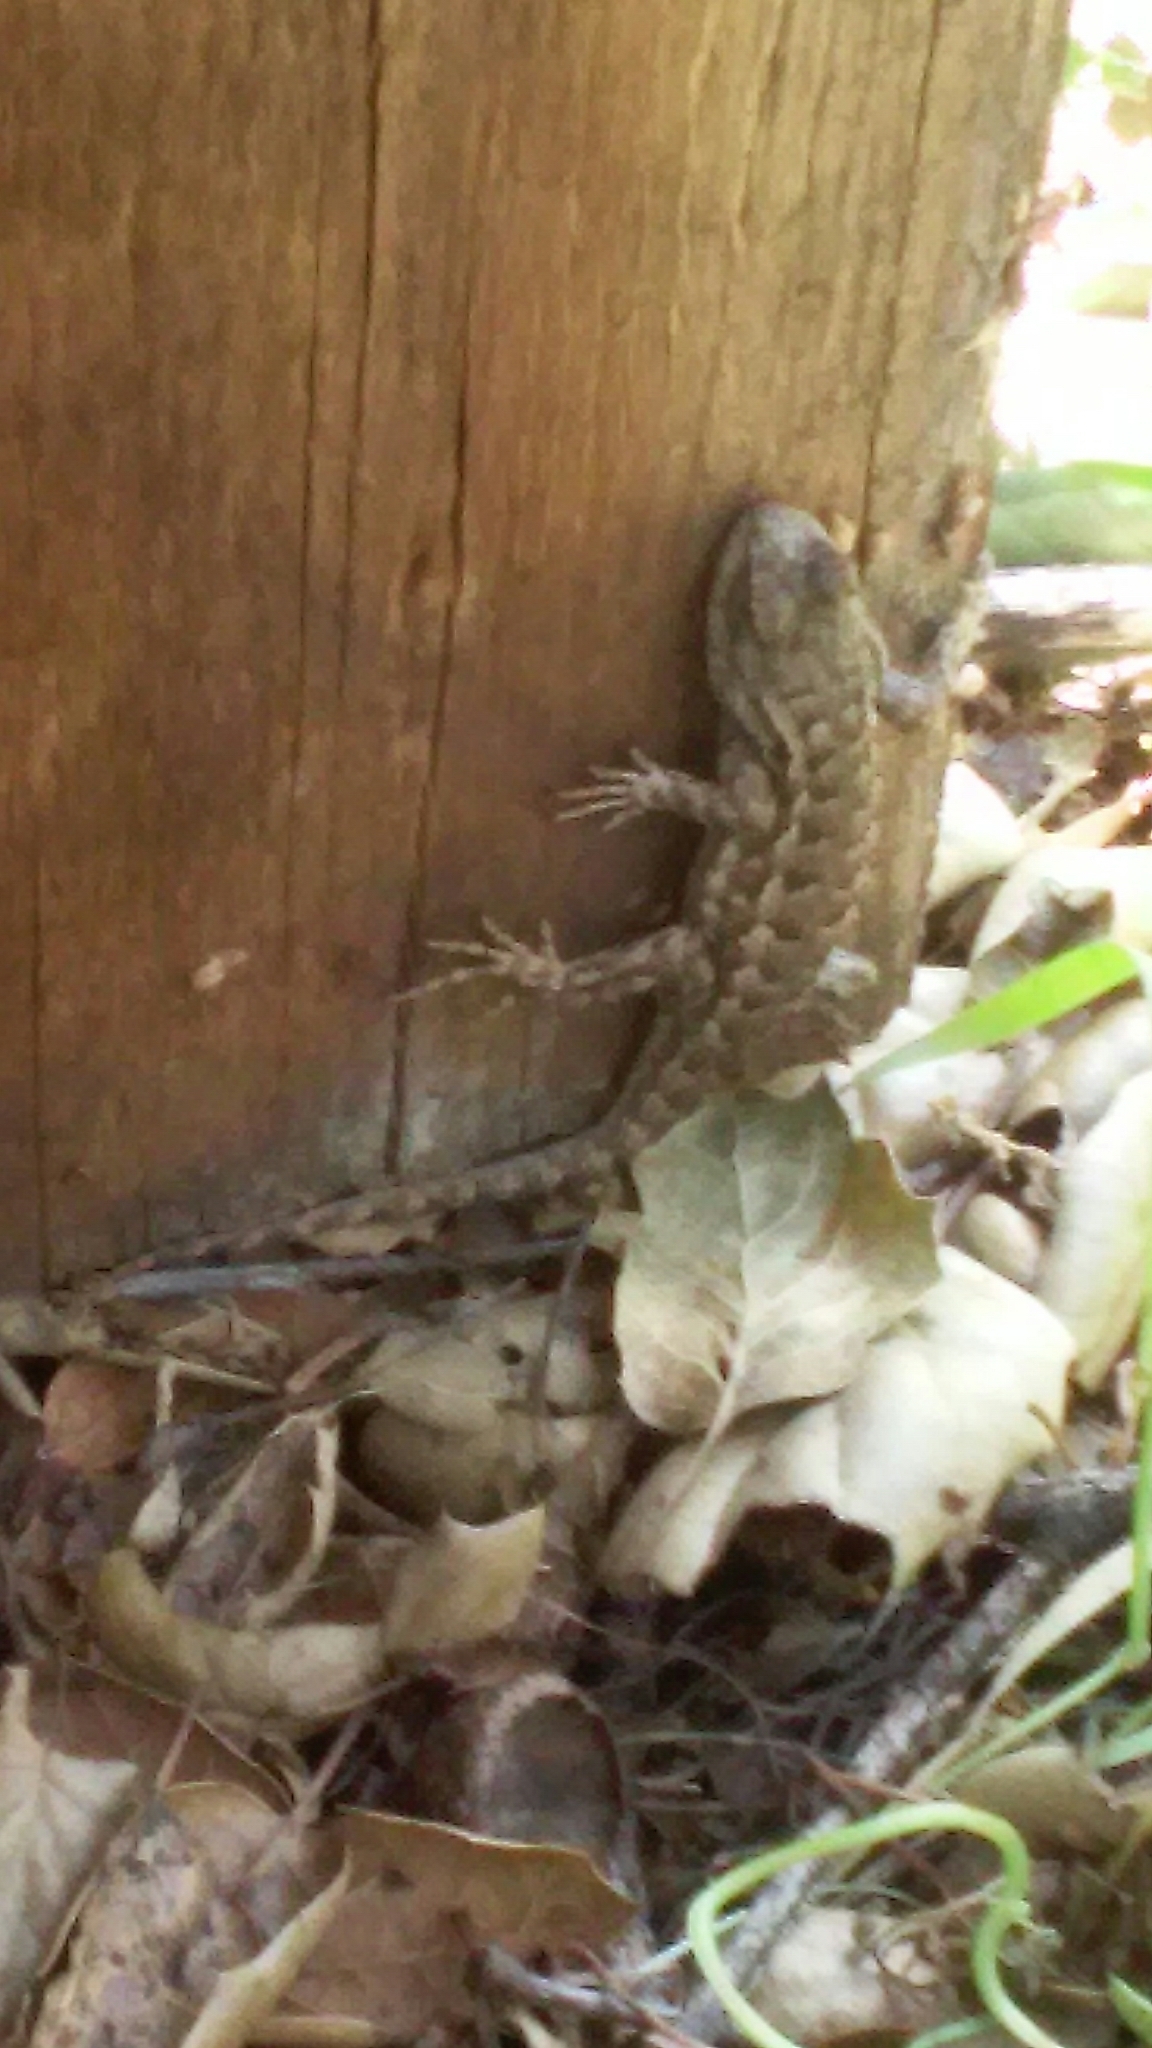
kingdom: Animalia
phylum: Chordata
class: Squamata
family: Phrynosomatidae
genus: Sceloporus
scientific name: Sceloporus occidentalis
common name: Western fence lizard
